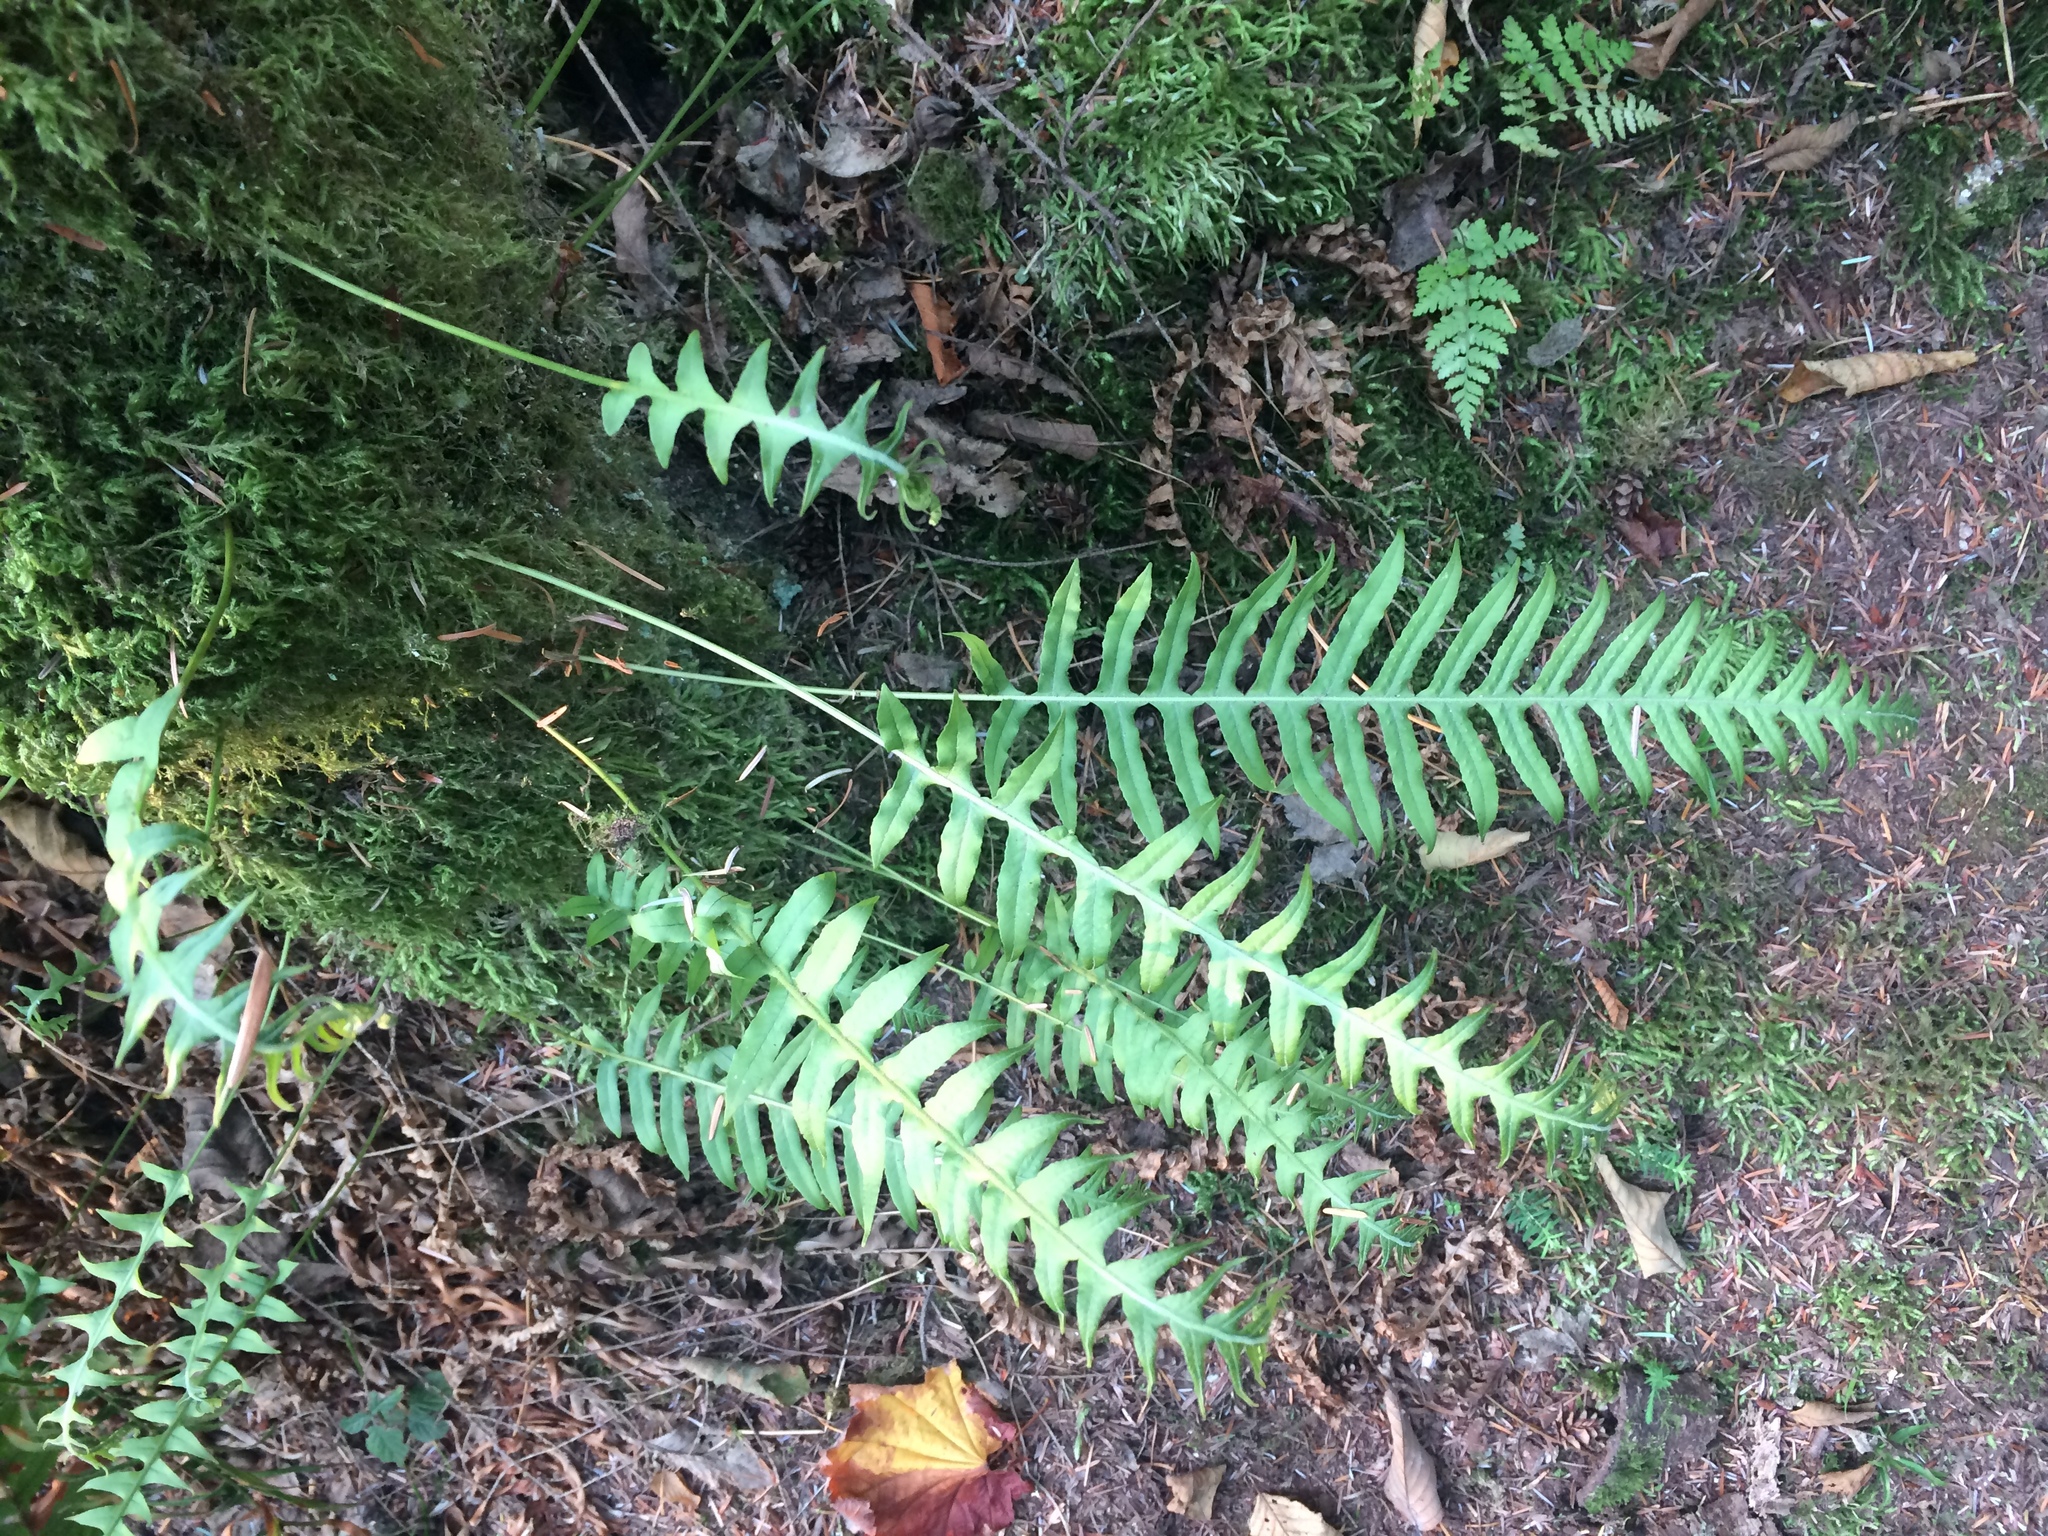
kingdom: Plantae
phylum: Tracheophyta
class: Polypodiopsida
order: Polypodiales
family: Polypodiaceae
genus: Polypodium
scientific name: Polypodium glycyrrhiza
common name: Licorice fern
